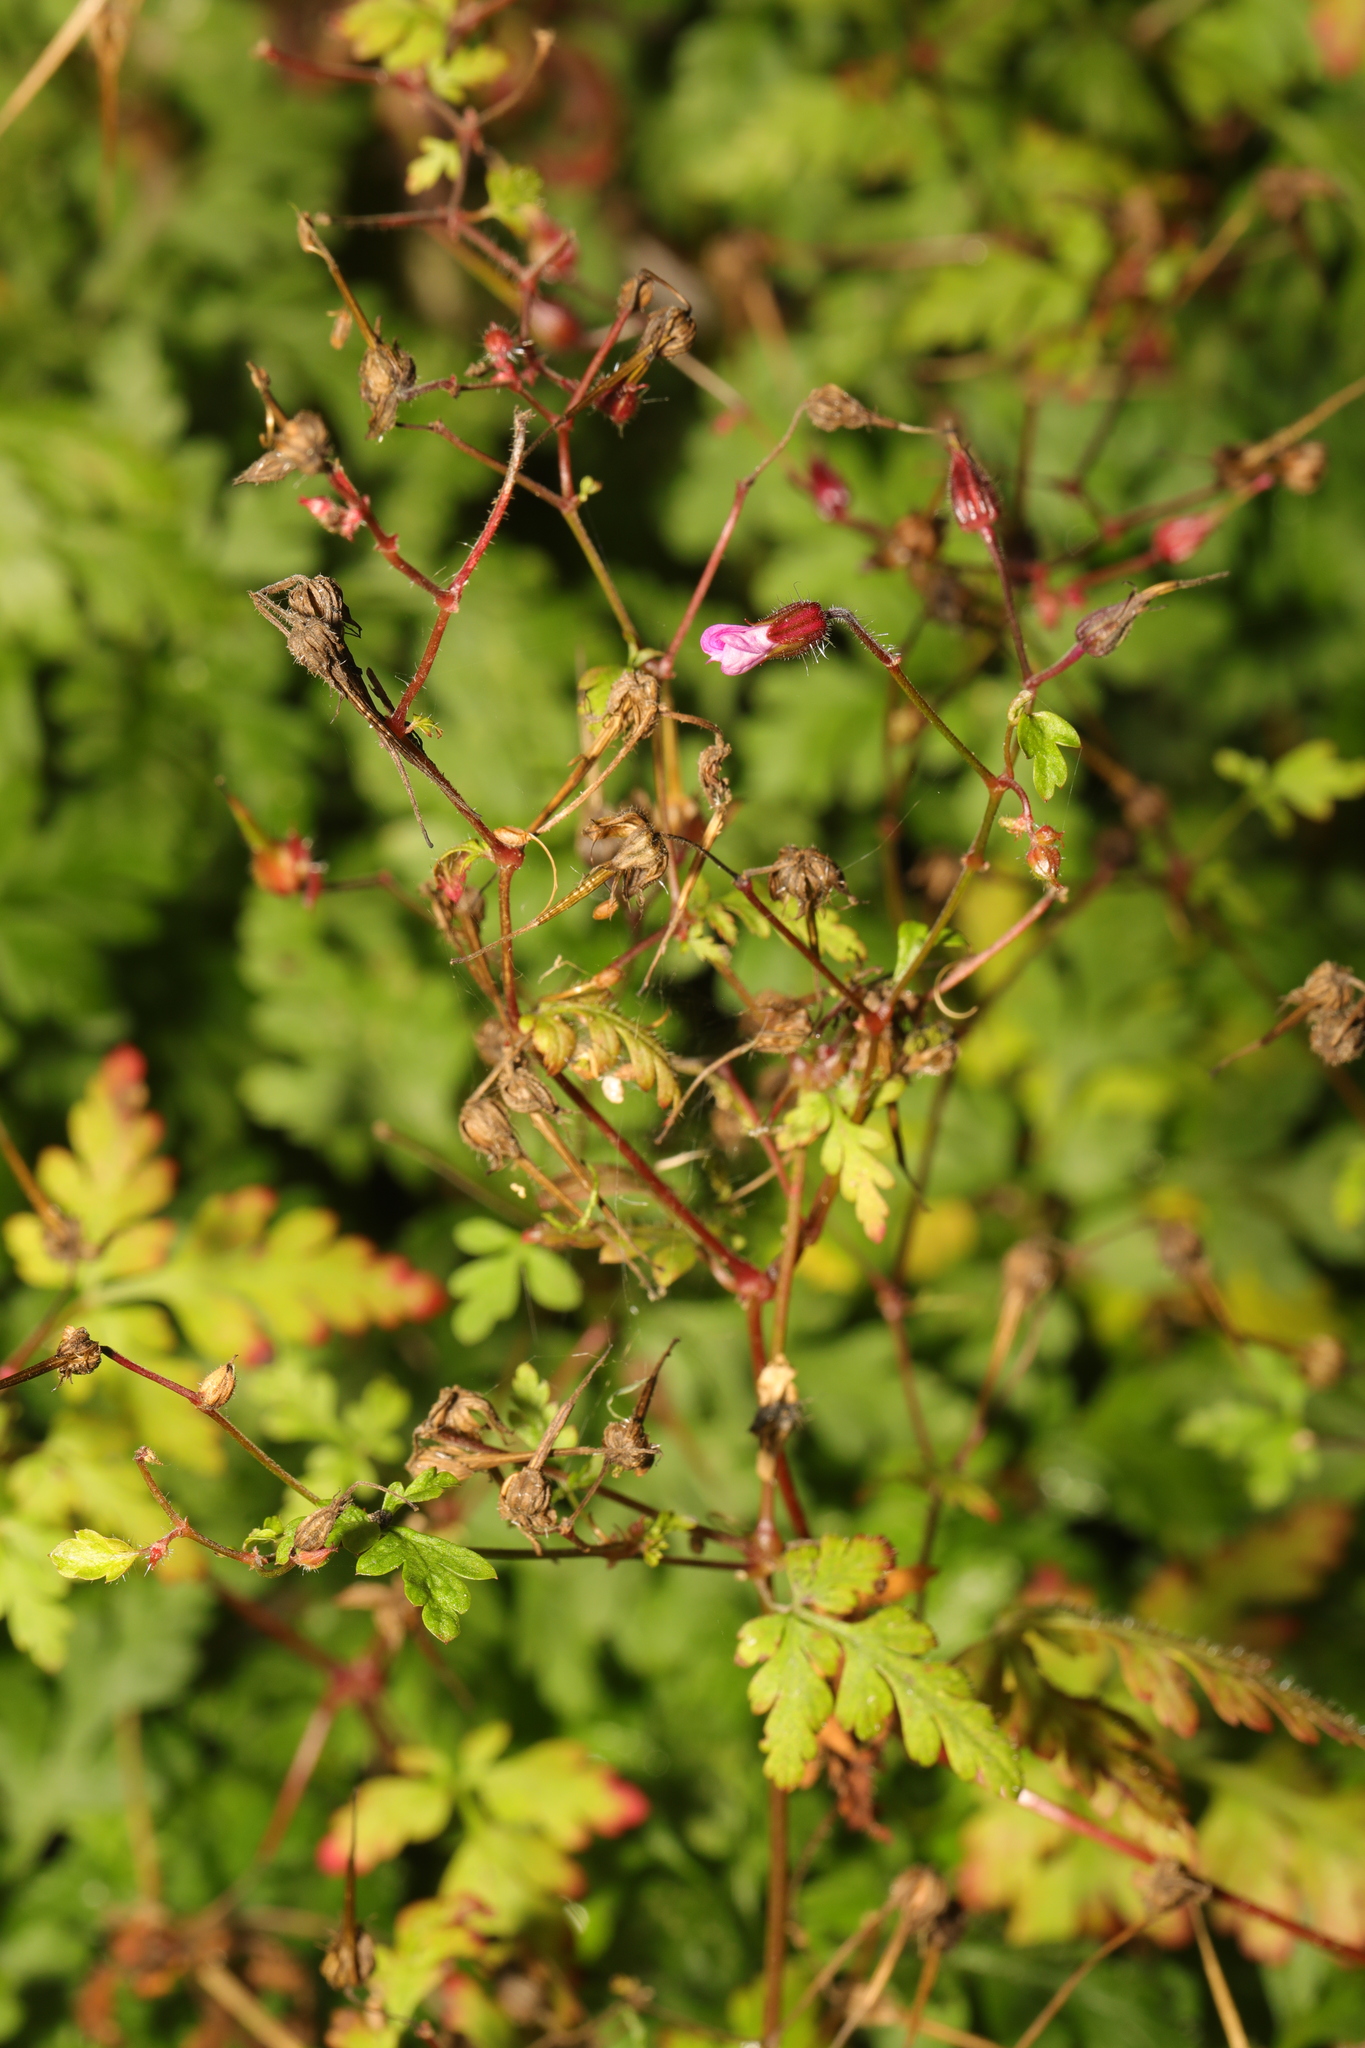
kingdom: Plantae
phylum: Tracheophyta
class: Magnoliopsida
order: Geraniales
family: Geraniaceae
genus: Geranium
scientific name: Geranium robertianum
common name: Herb-robert
